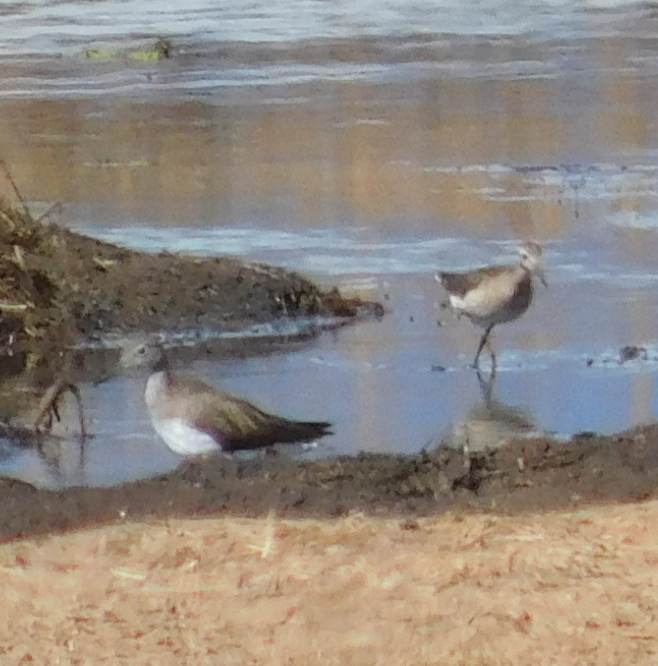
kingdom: Animalia
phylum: Chordata
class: Aves
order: Charadriiformes
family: Scolopacidae
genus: Tringa
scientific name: Tringa ochropus
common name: Green sandpiper
